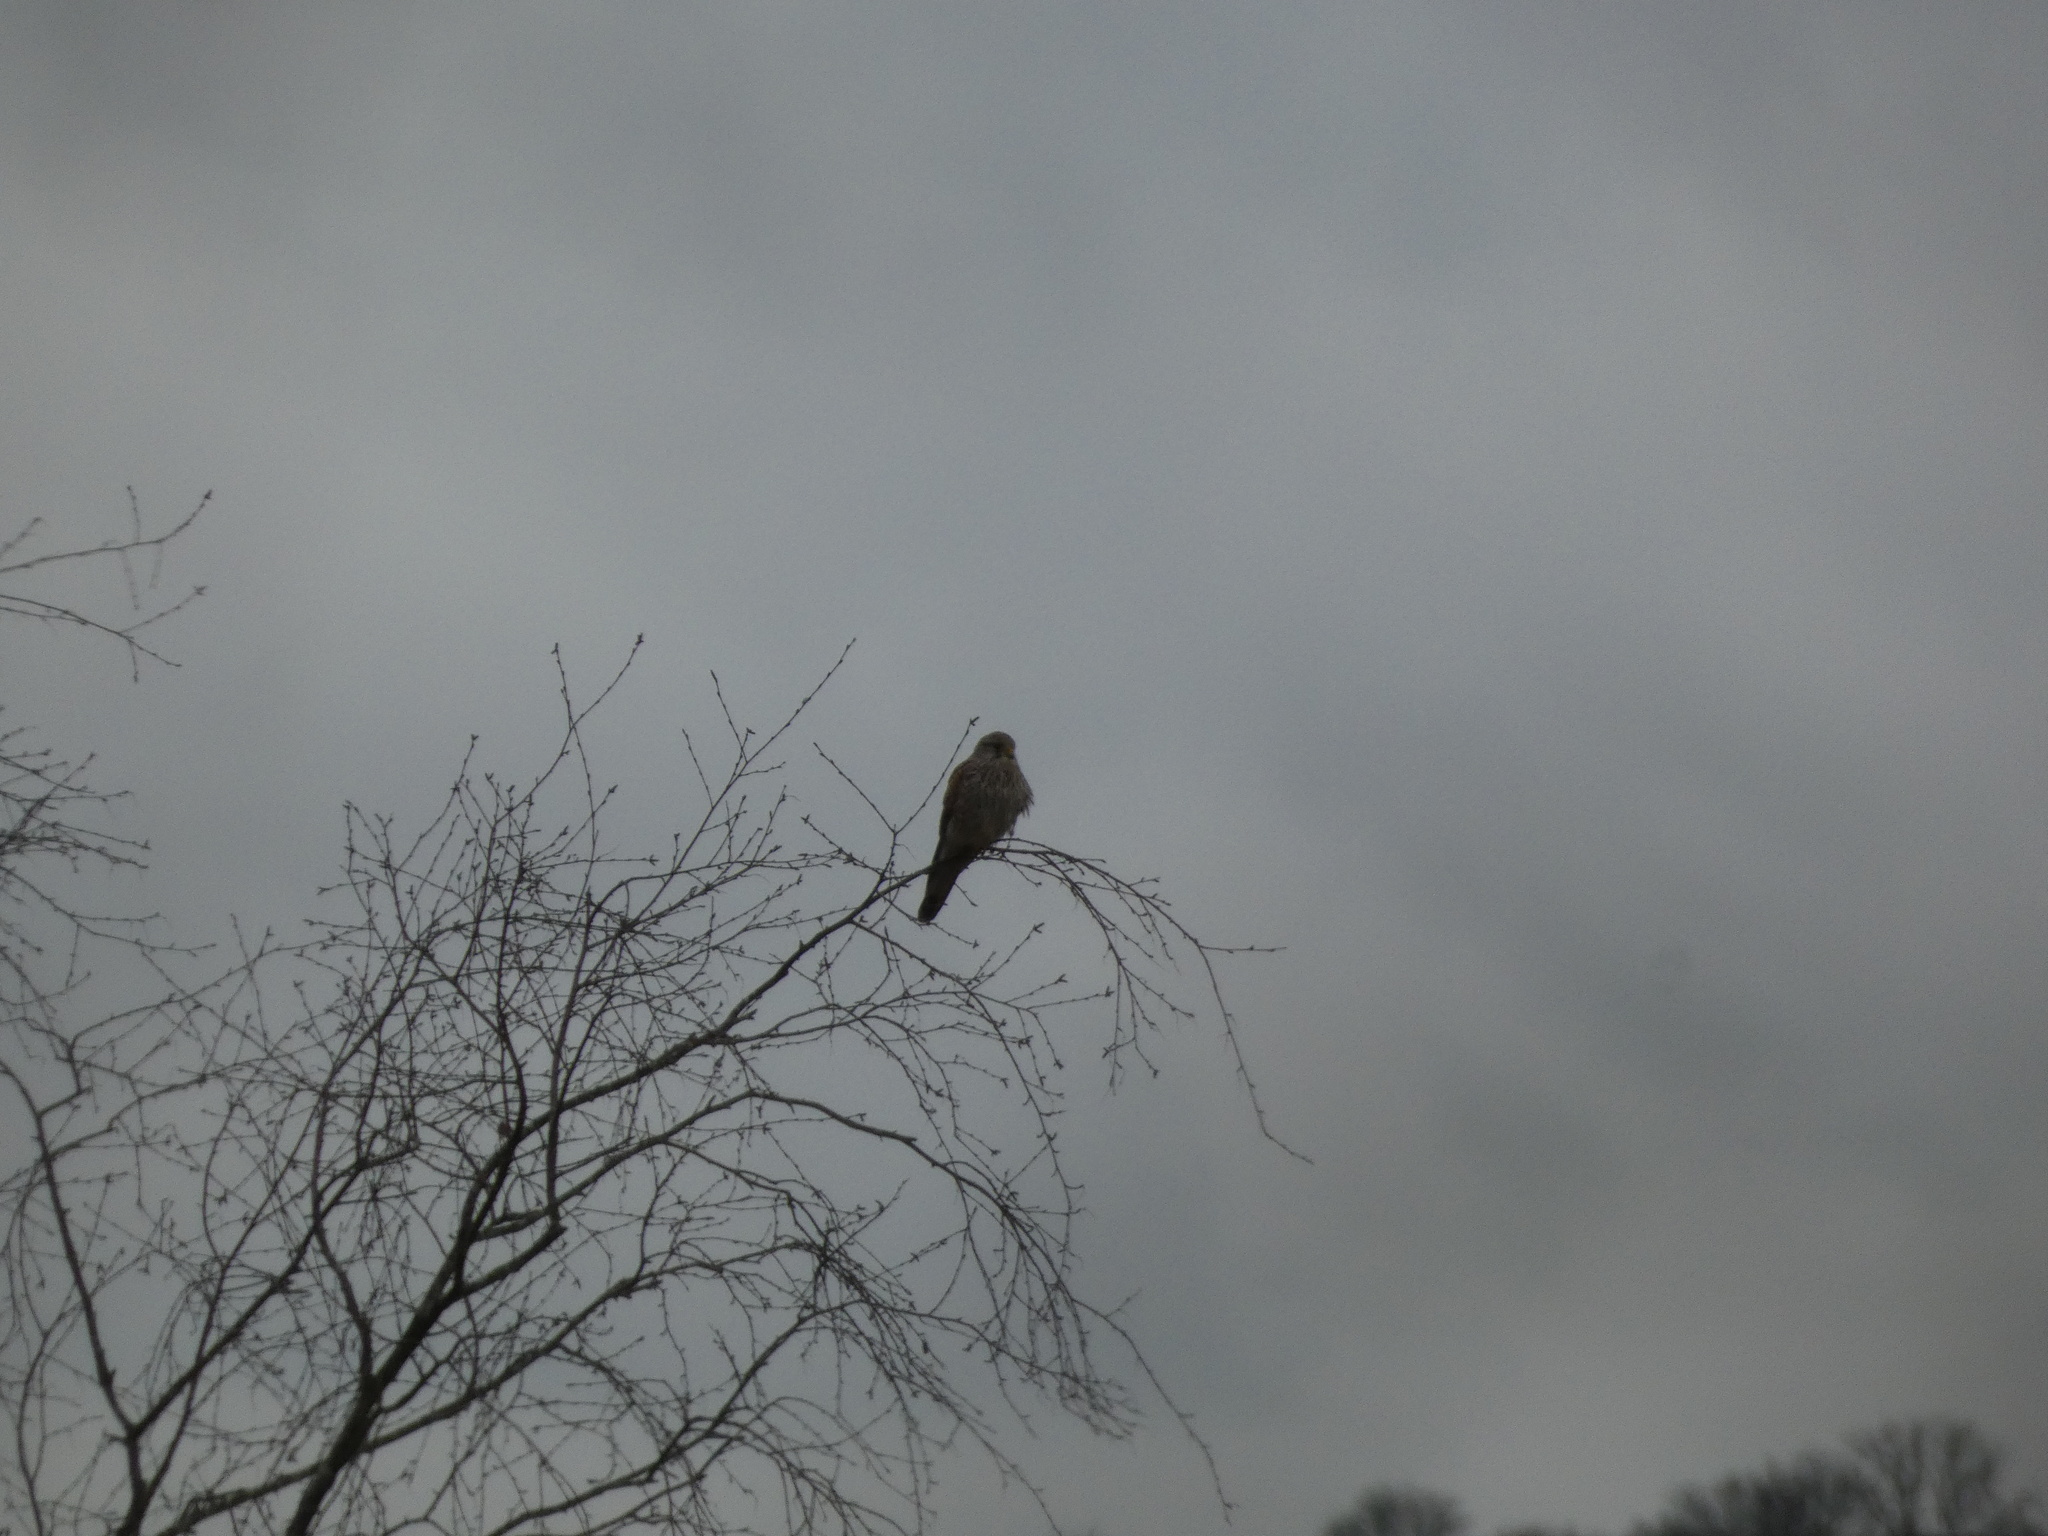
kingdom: Animalia
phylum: Chordata
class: Aves
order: Falconiformes
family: Falconidae
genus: Falco
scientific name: Falco tinnunculus
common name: Common kestrel
